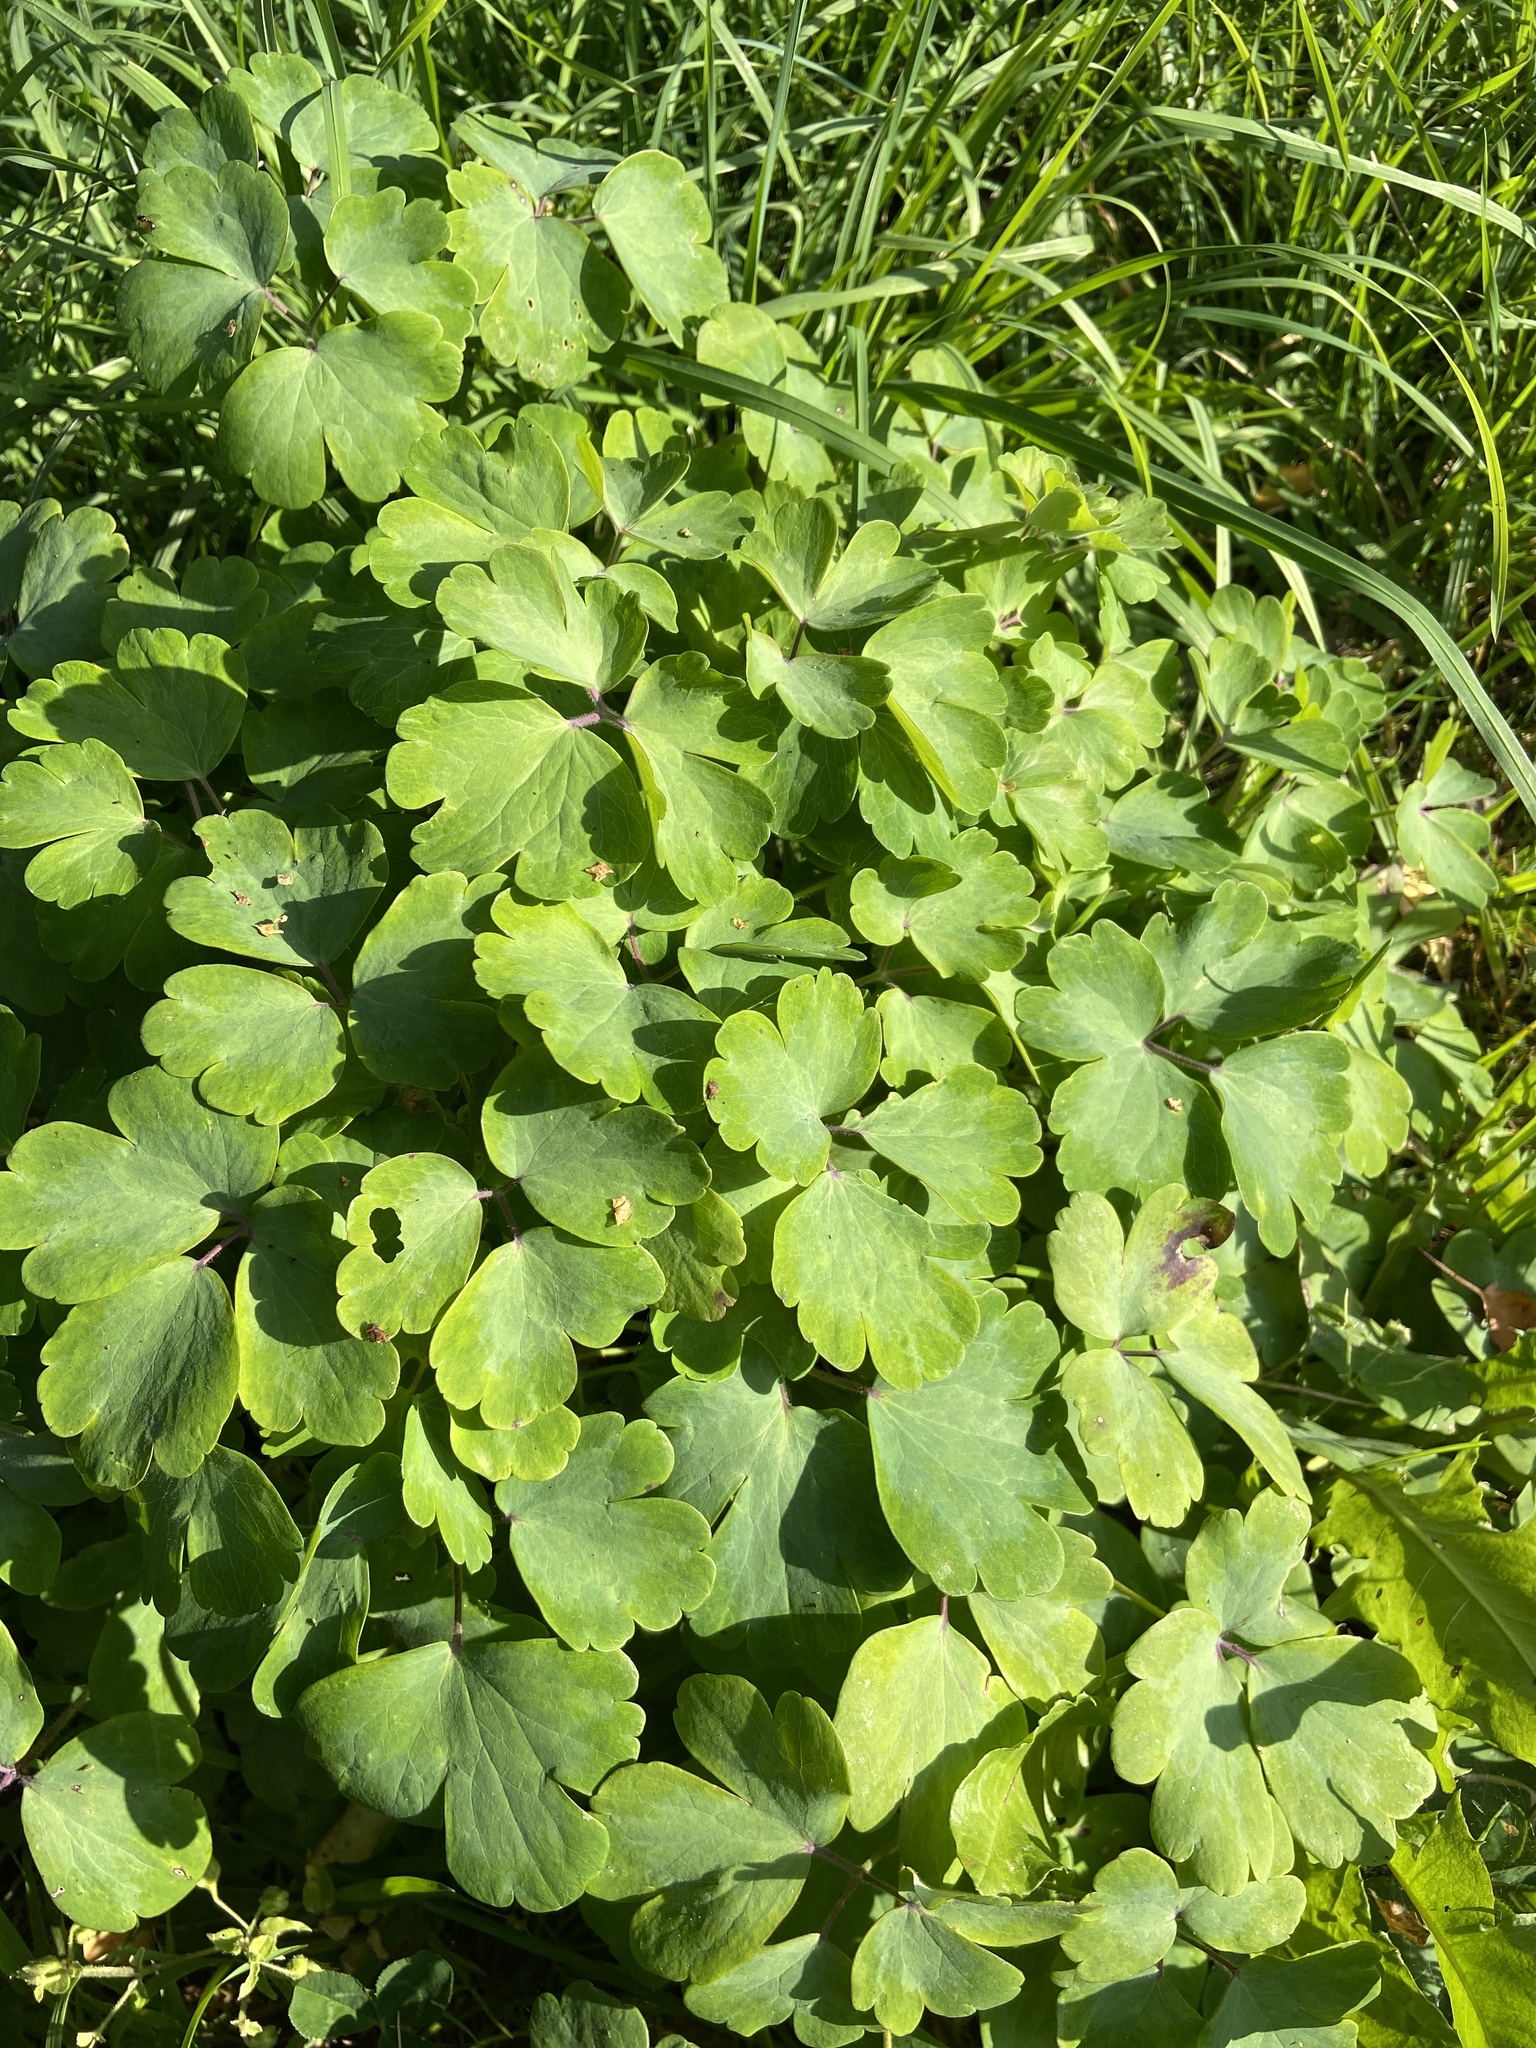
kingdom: Plantae
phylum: Tracheophyta
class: Magnoliopsida
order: Ranunculales
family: Ranunculaceae
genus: Aquilegia
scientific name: Aquilegia vulgaris
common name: Columbine
